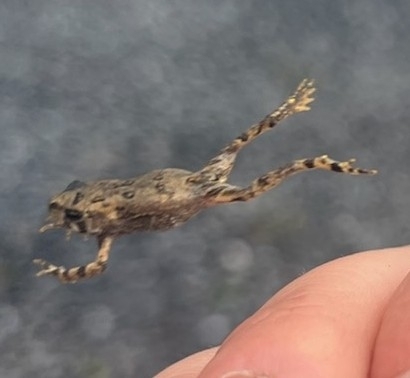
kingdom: Animalia
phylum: Chordata
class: Amphibia
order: Anura
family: Bufonidae
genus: Anaxyrus
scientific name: Anaxyrus americanus
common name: American toad
